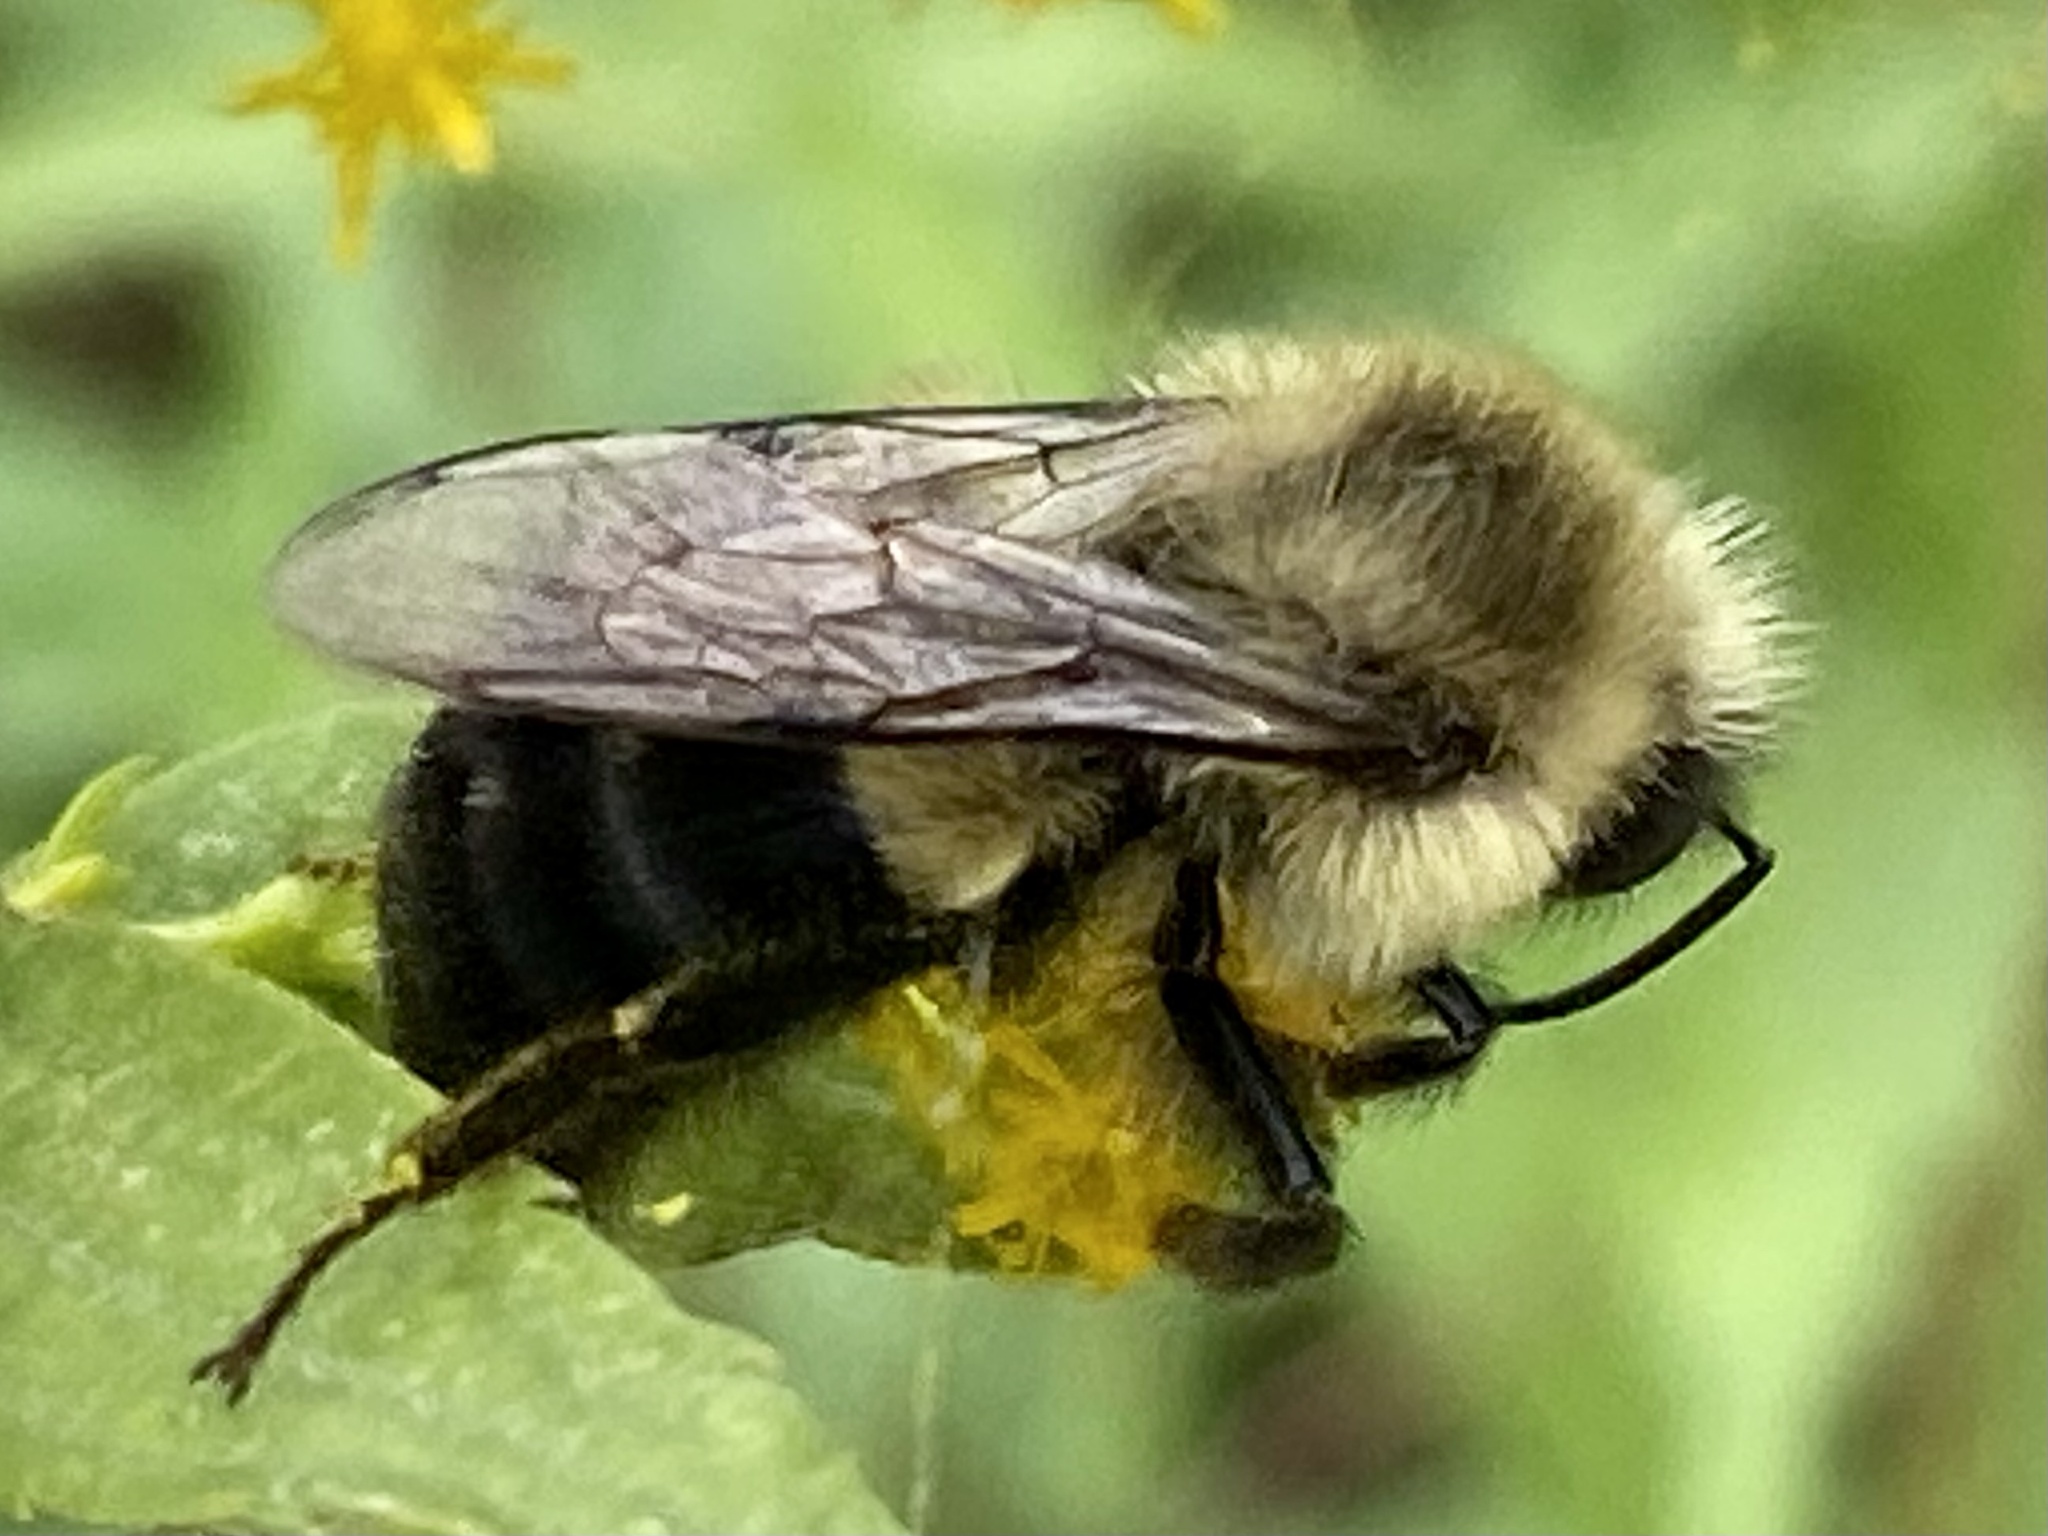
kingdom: Animalia
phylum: Arthropoda
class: Insecta
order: Hymenoptera
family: Apidae
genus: Bombus
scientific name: Bombus impatiens
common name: Common eastern bumble bee
